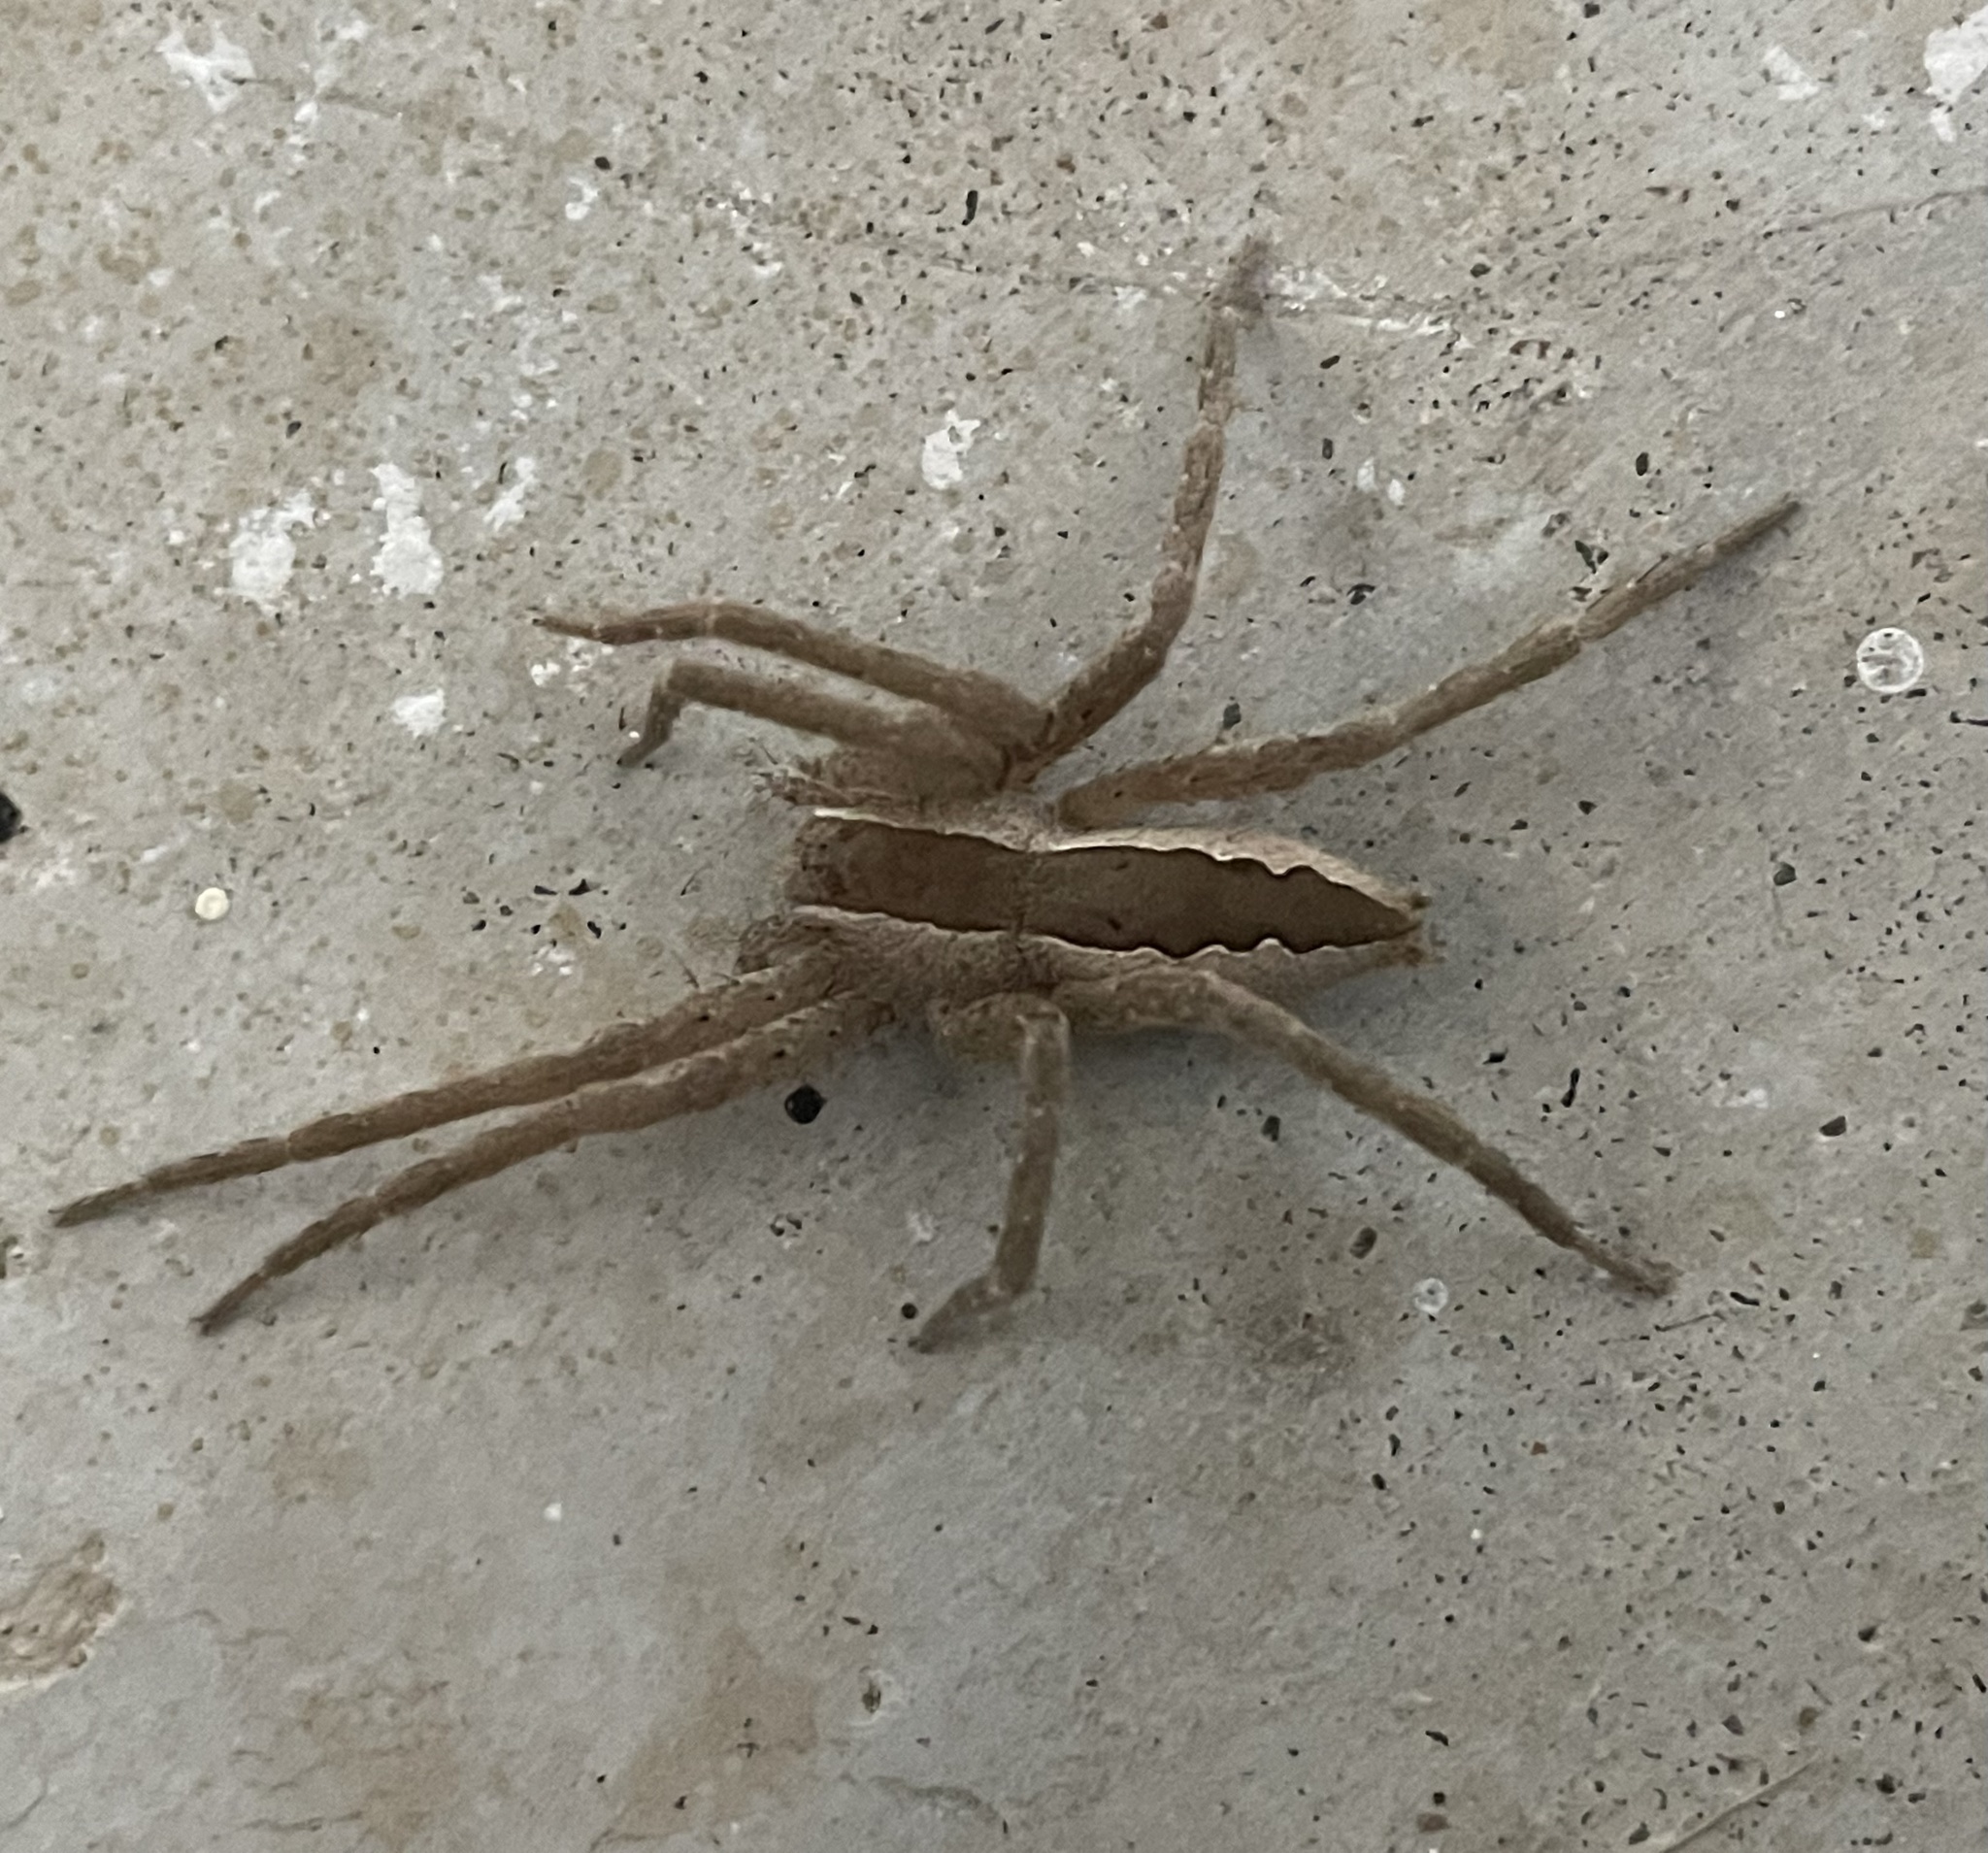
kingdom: Animalia
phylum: Arthropoda
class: Arachnida
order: Araneae
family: Pisauridae
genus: Pisaurina
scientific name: Pisaurina mira
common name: American nursery web spider
